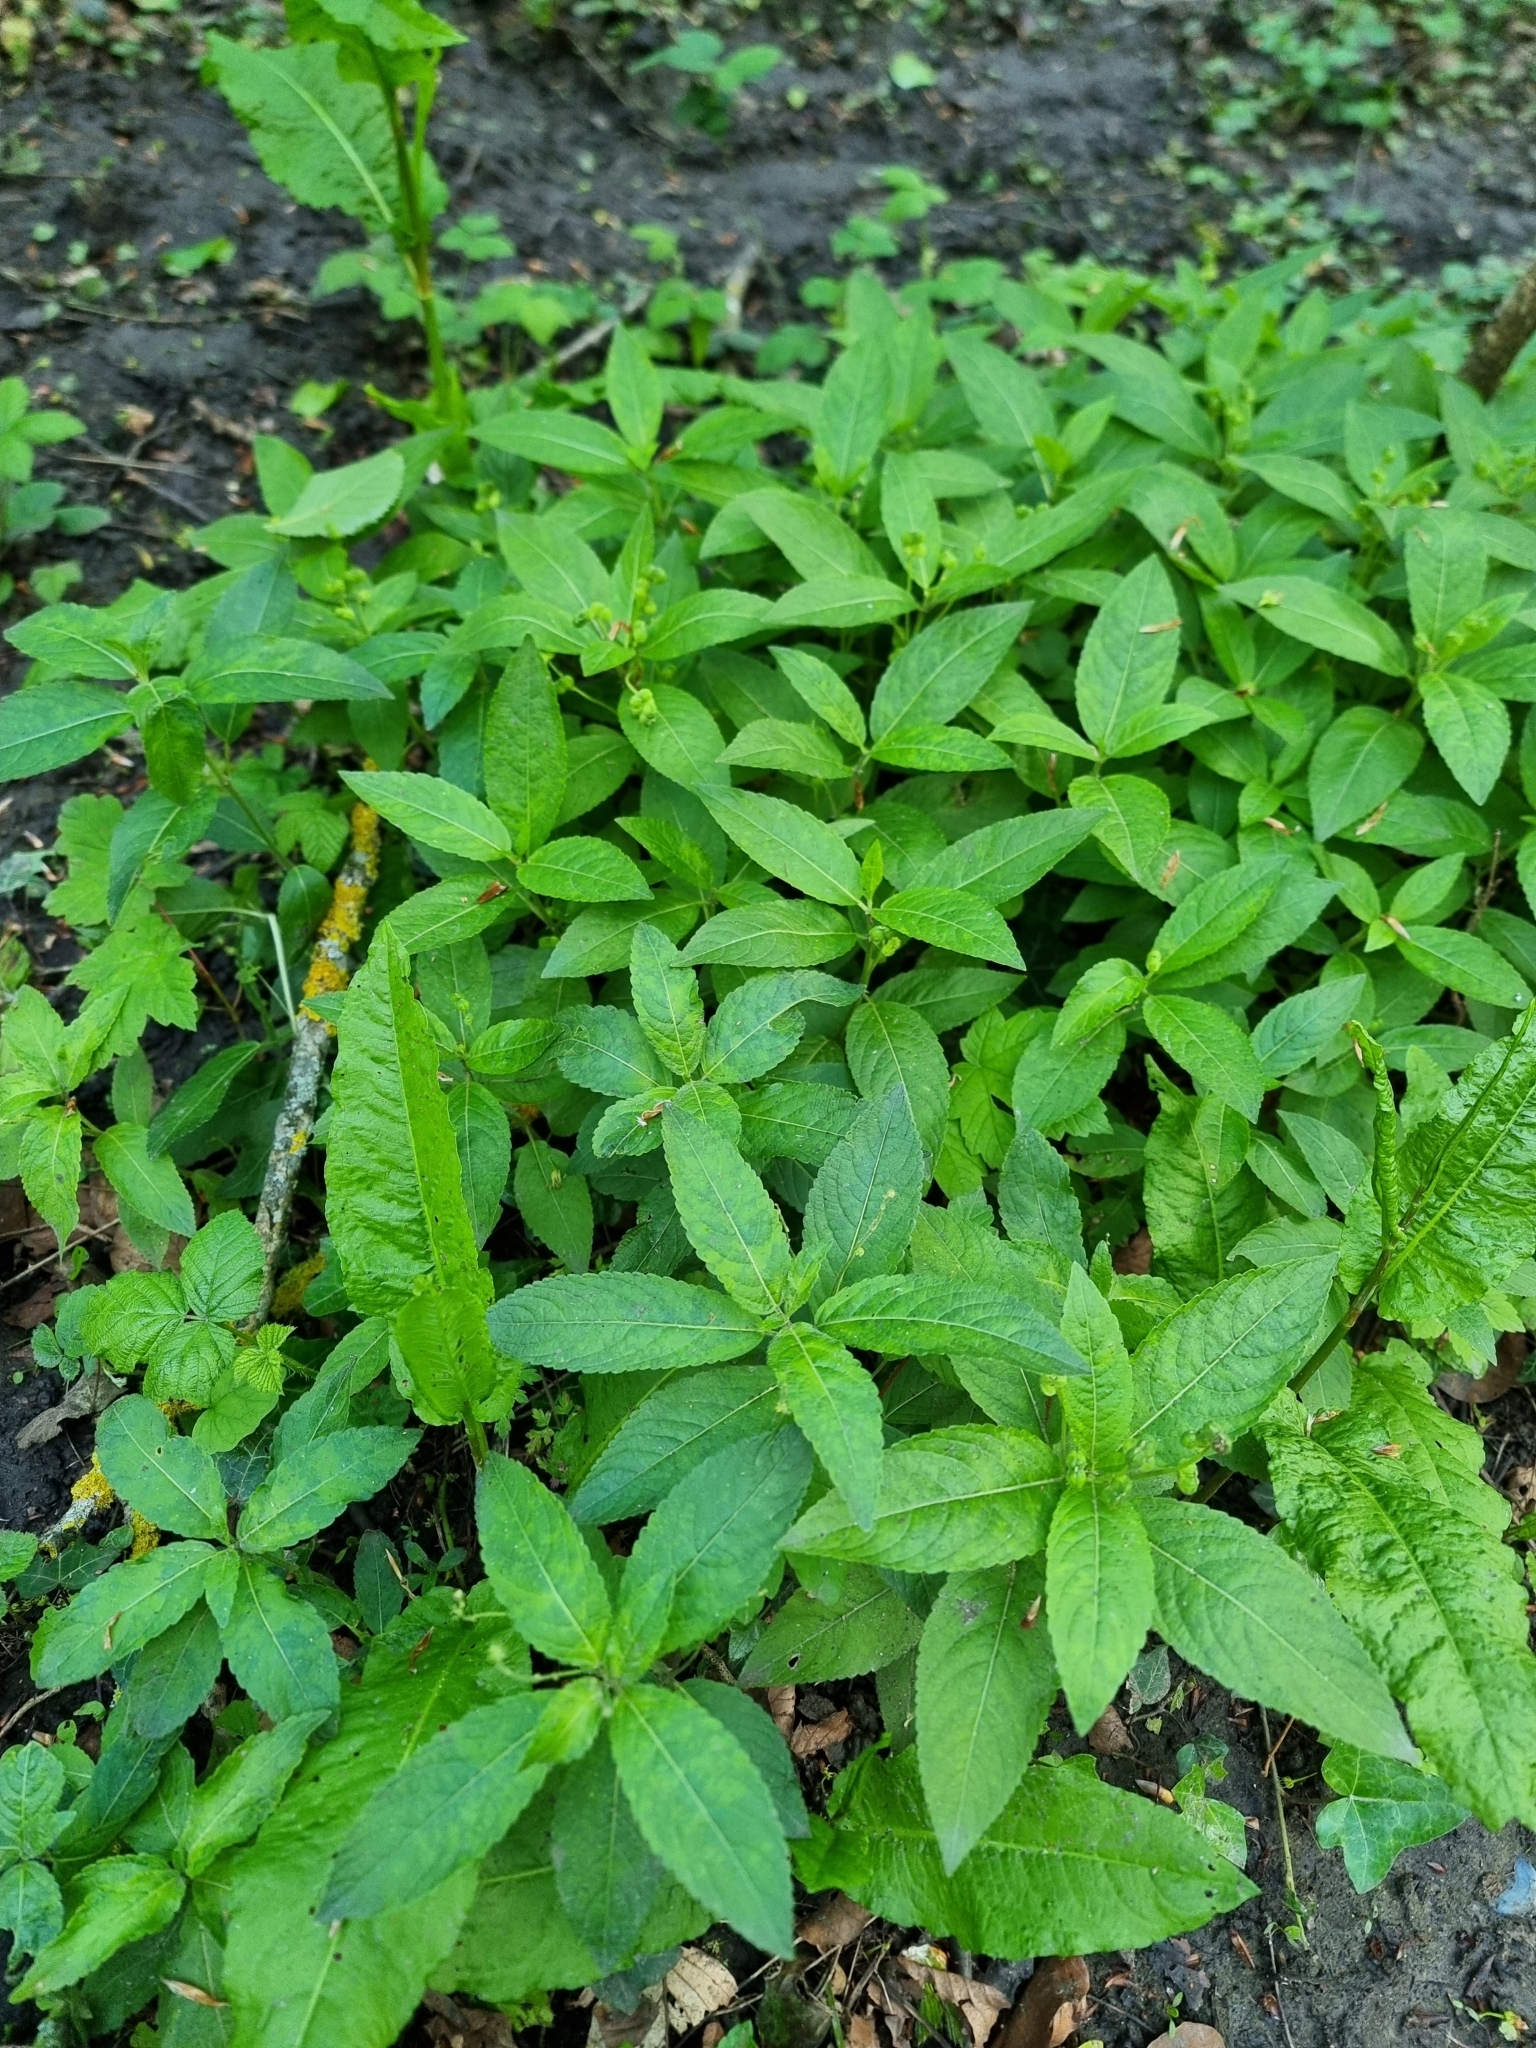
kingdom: Plantae
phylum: Tracheophyta
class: Magnoliopsida
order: Malpighiales
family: Euphorbiaceae
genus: Mercurialis
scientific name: Mercurialis perennis
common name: Dog mercury
